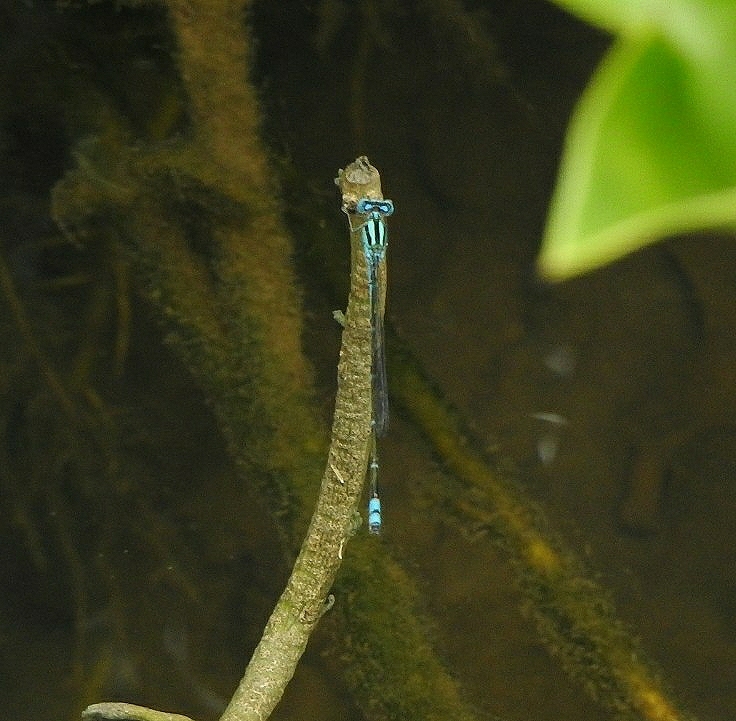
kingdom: Animalia
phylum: Arthropoda
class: Insecta
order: Odonata
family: Coenagrionidae
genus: Pseudagrion
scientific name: Pseudagrion microcephalum
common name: Blue riverdamsel
